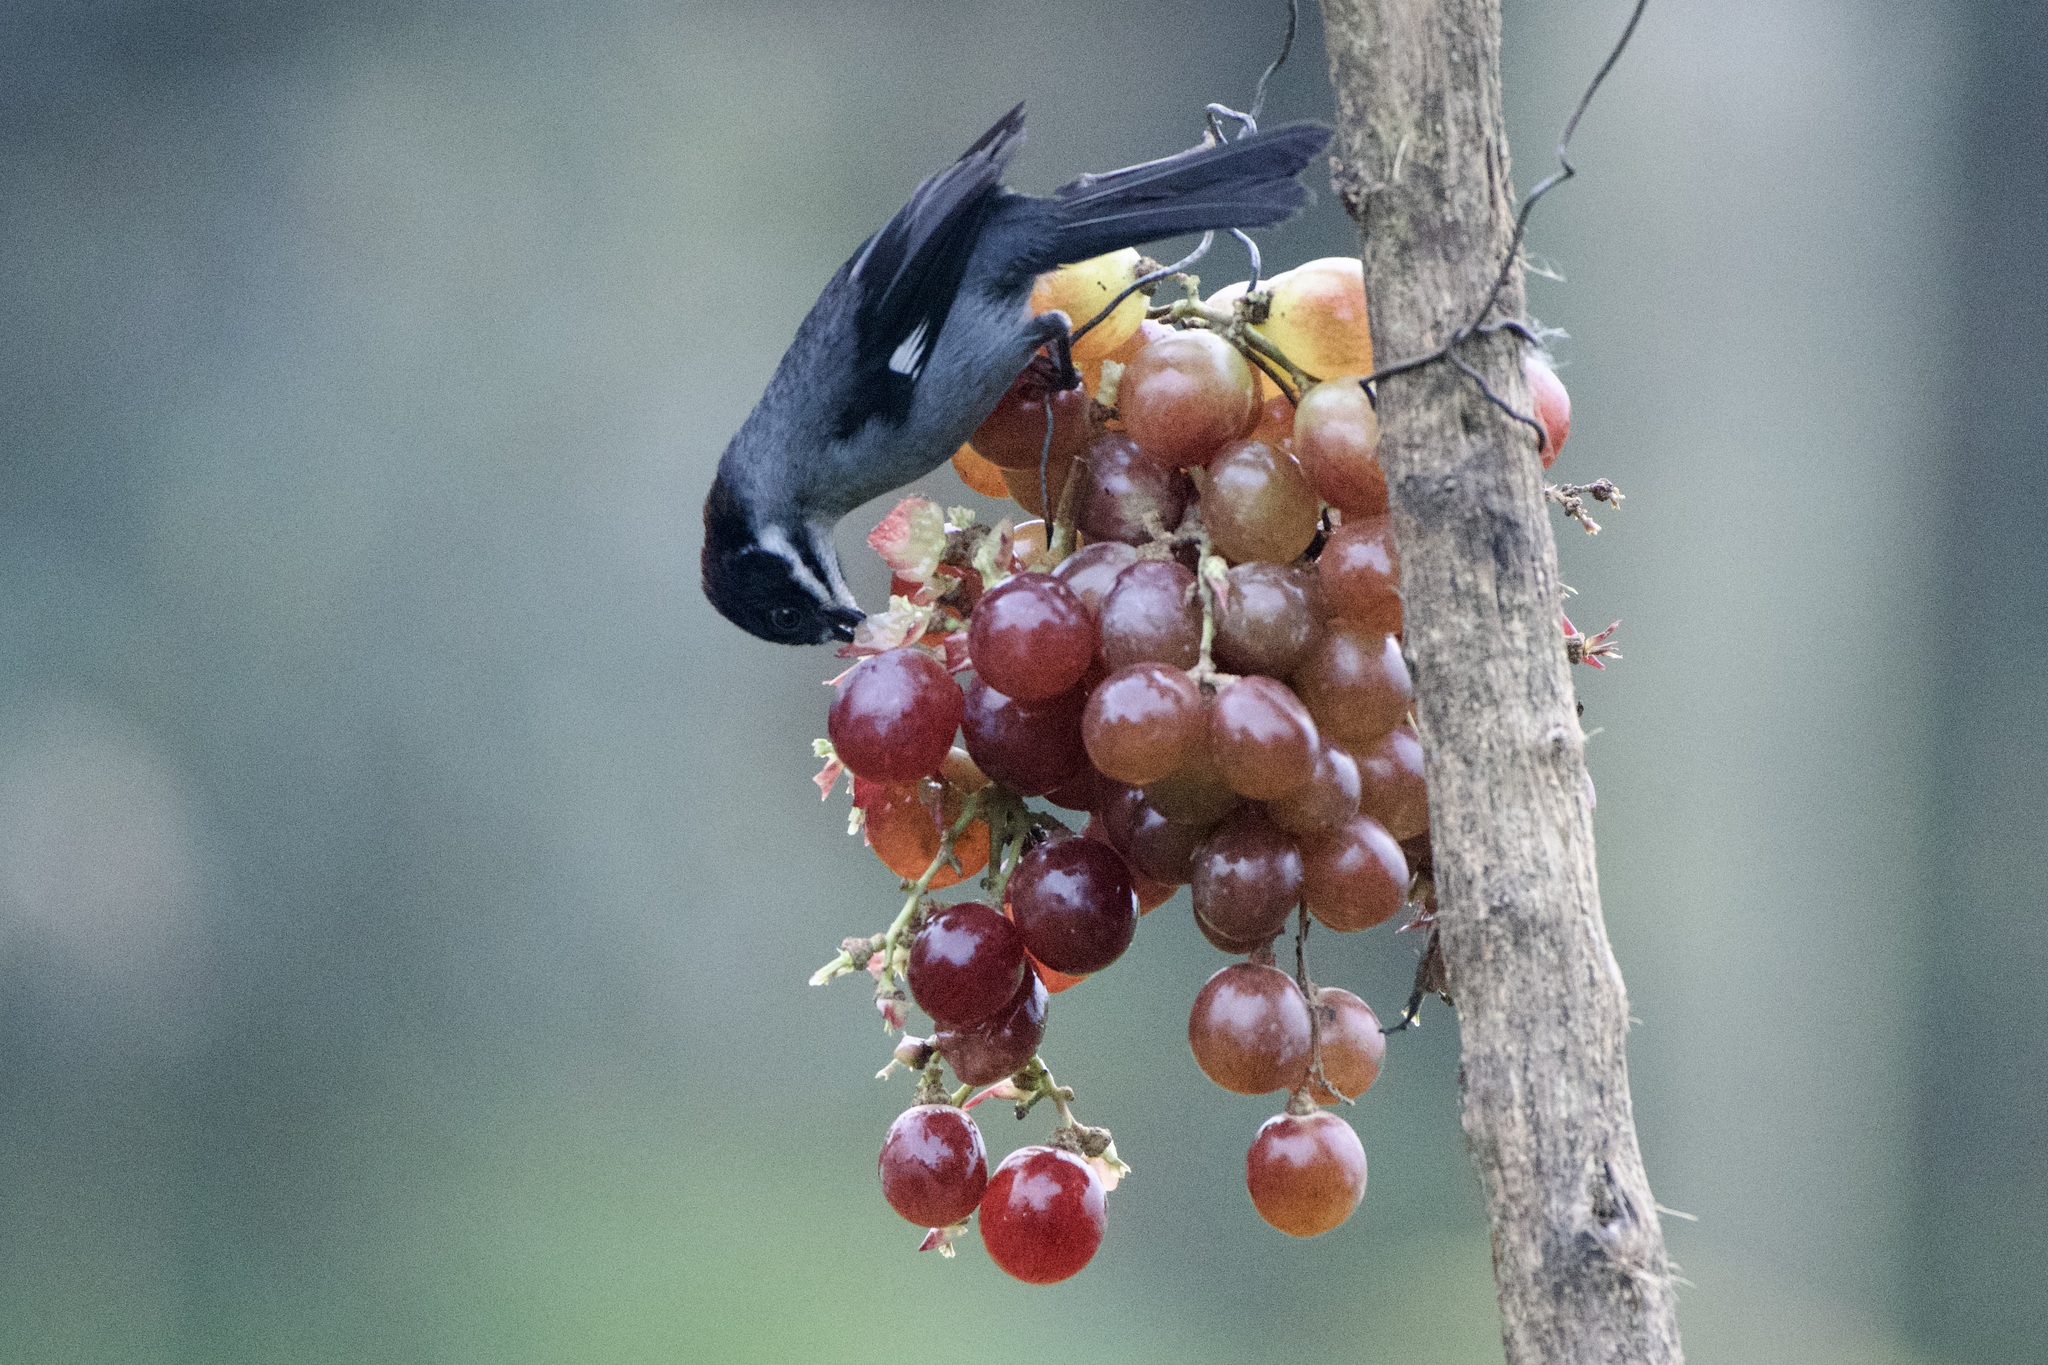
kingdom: Animalia
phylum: Chordata
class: Aves
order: Passeriformes
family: Passerellidae
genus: Atlapetes
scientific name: Atlapetes schistaceus
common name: Slaty brushfinch
